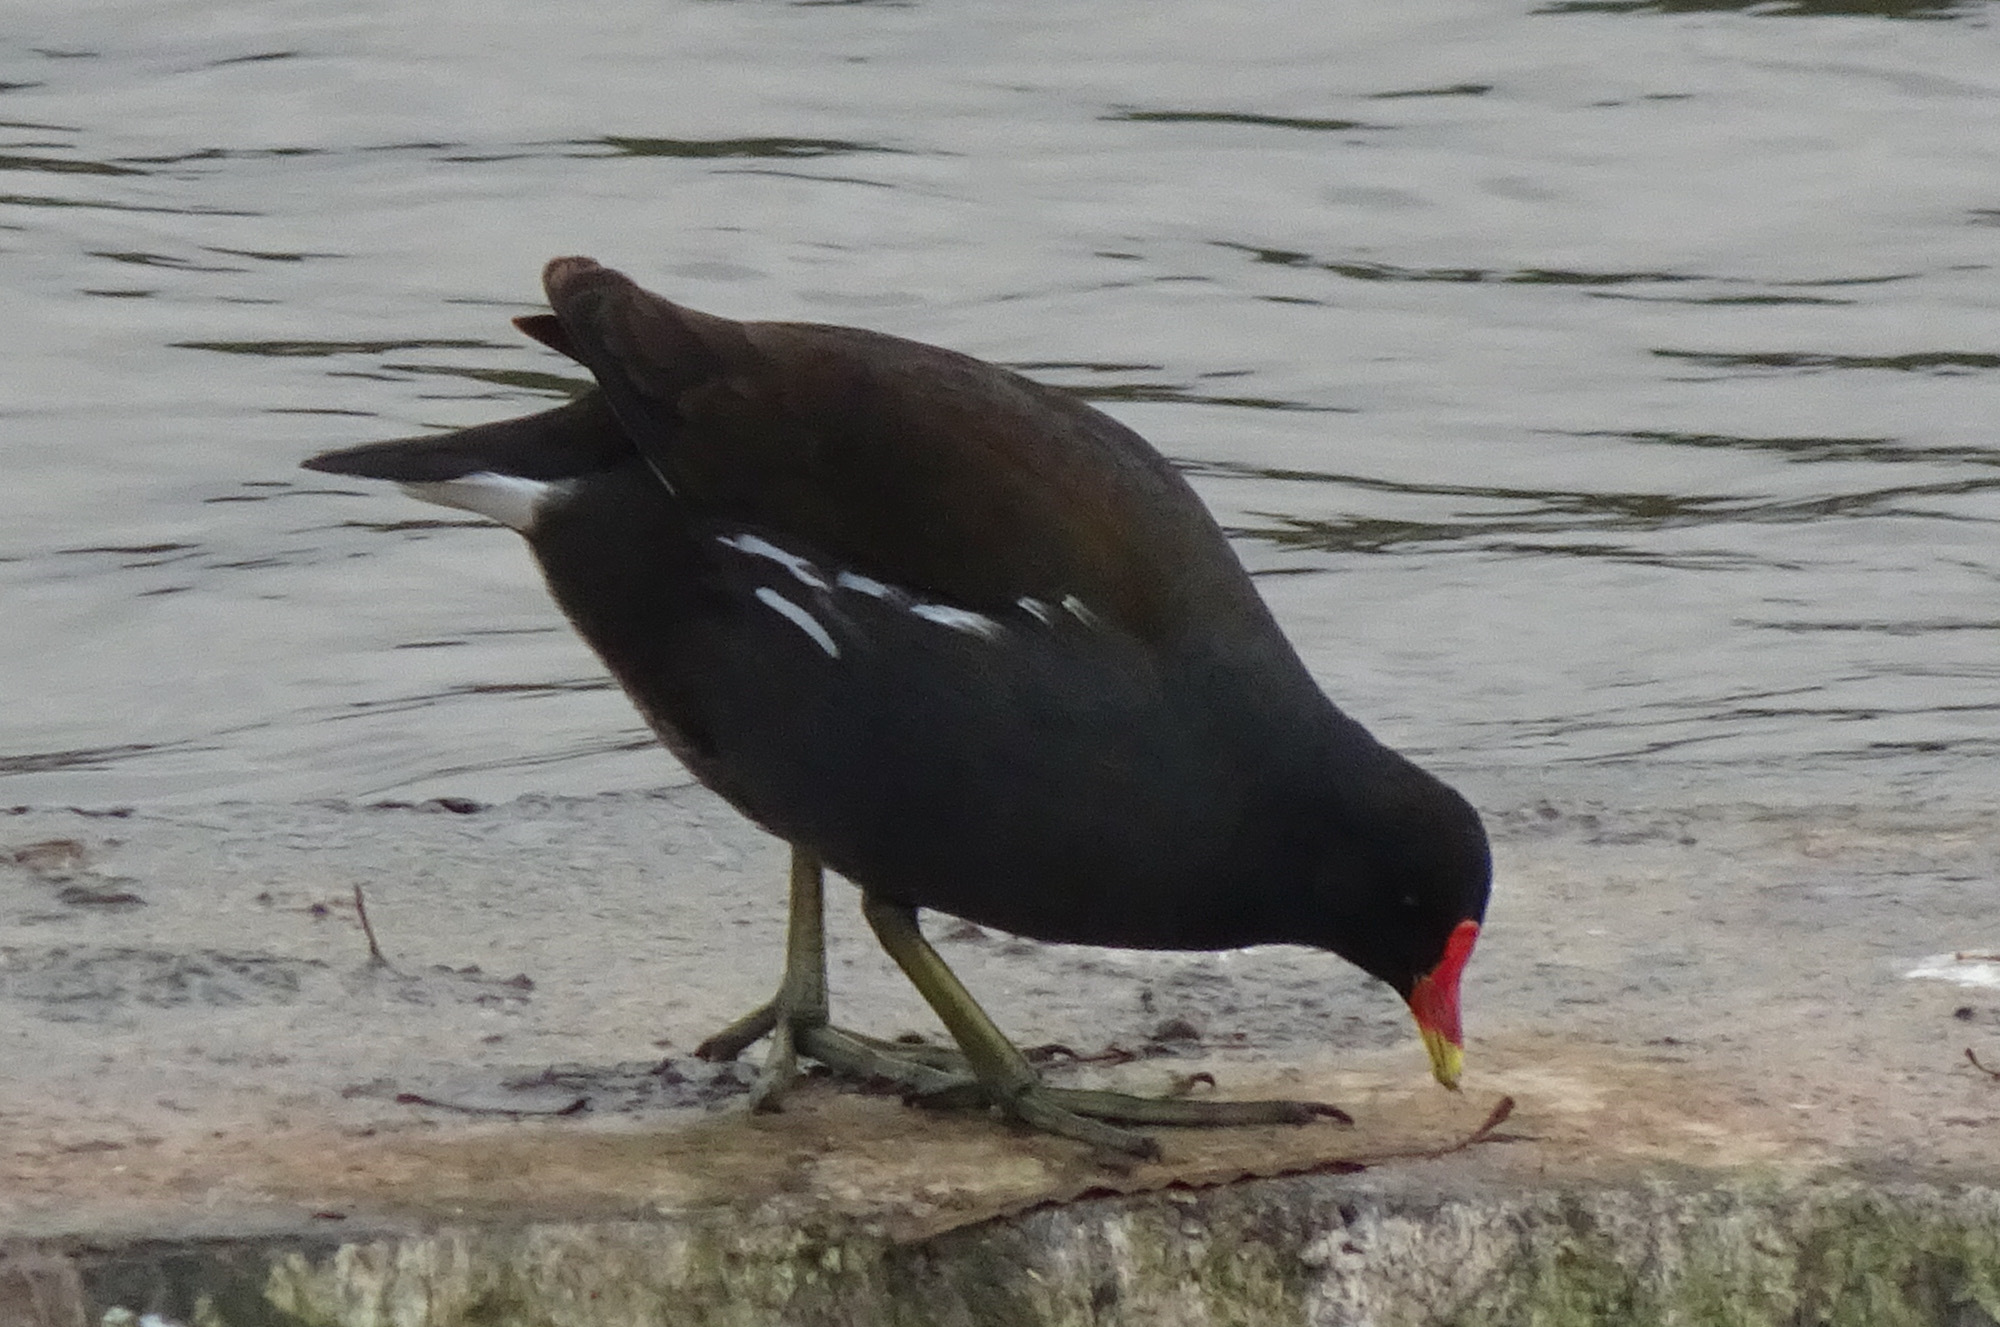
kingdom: Animalia
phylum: Chordata
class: Aves
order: Gruiformes
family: Rallidae
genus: Gallinula
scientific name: Gallinula chloropus
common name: Common moorhen
